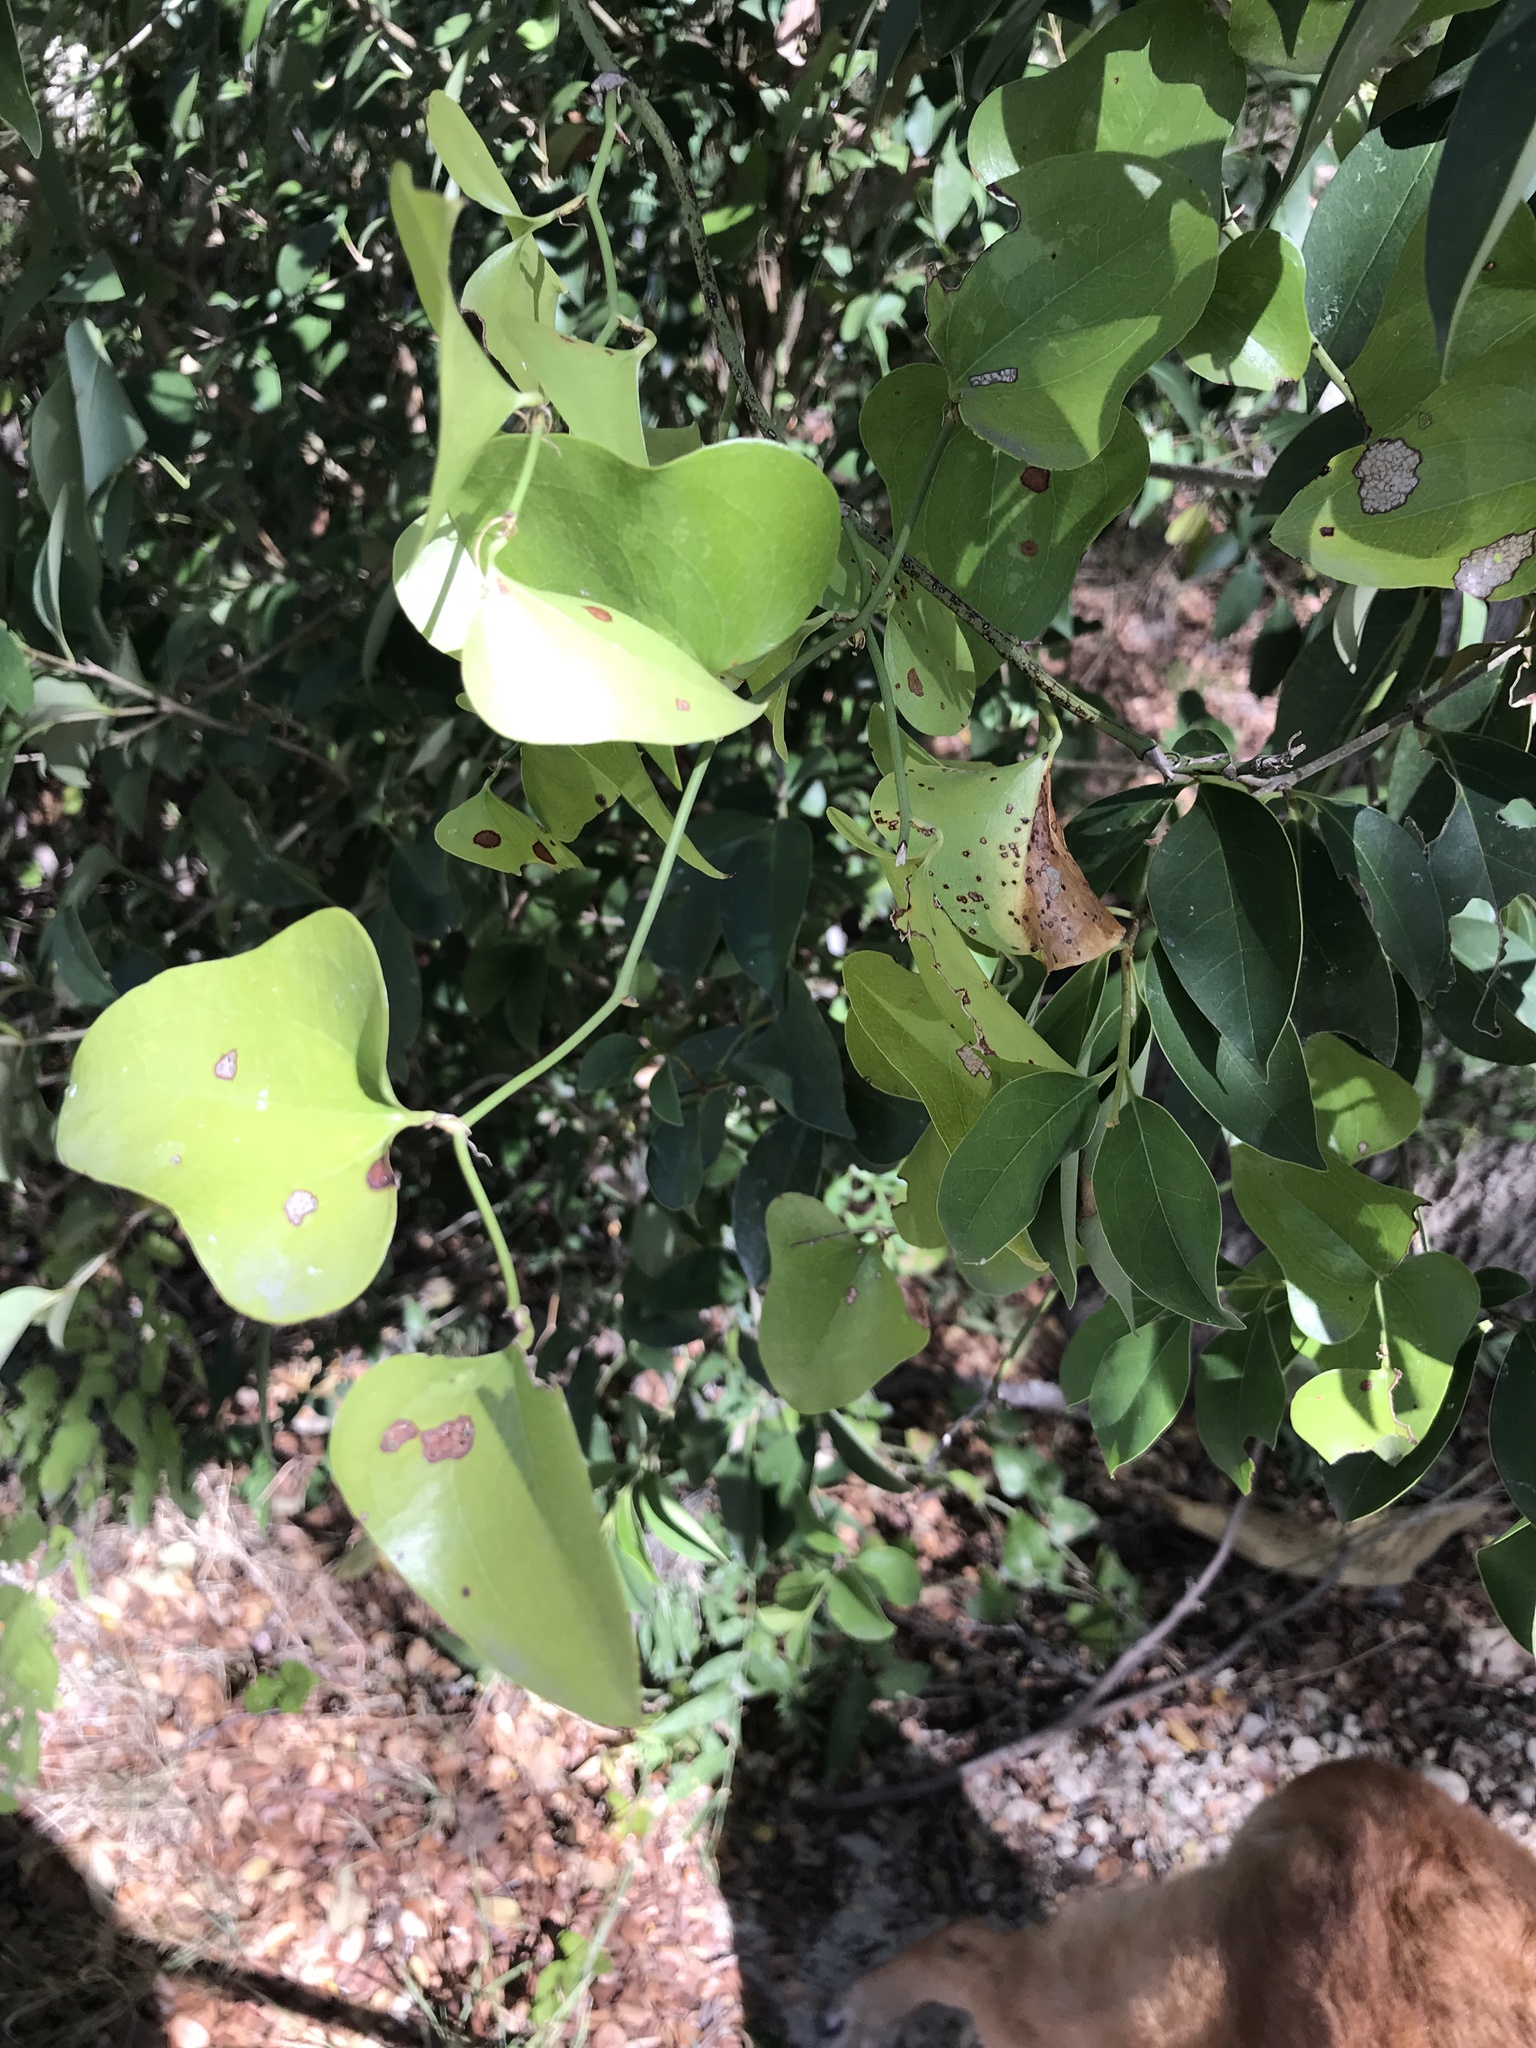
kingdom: Plantae
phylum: Tracheophyta
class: Liliopsida
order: Liliales
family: Smilacaceae
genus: Smilax
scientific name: Smilax bona-nox
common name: Catbrier
